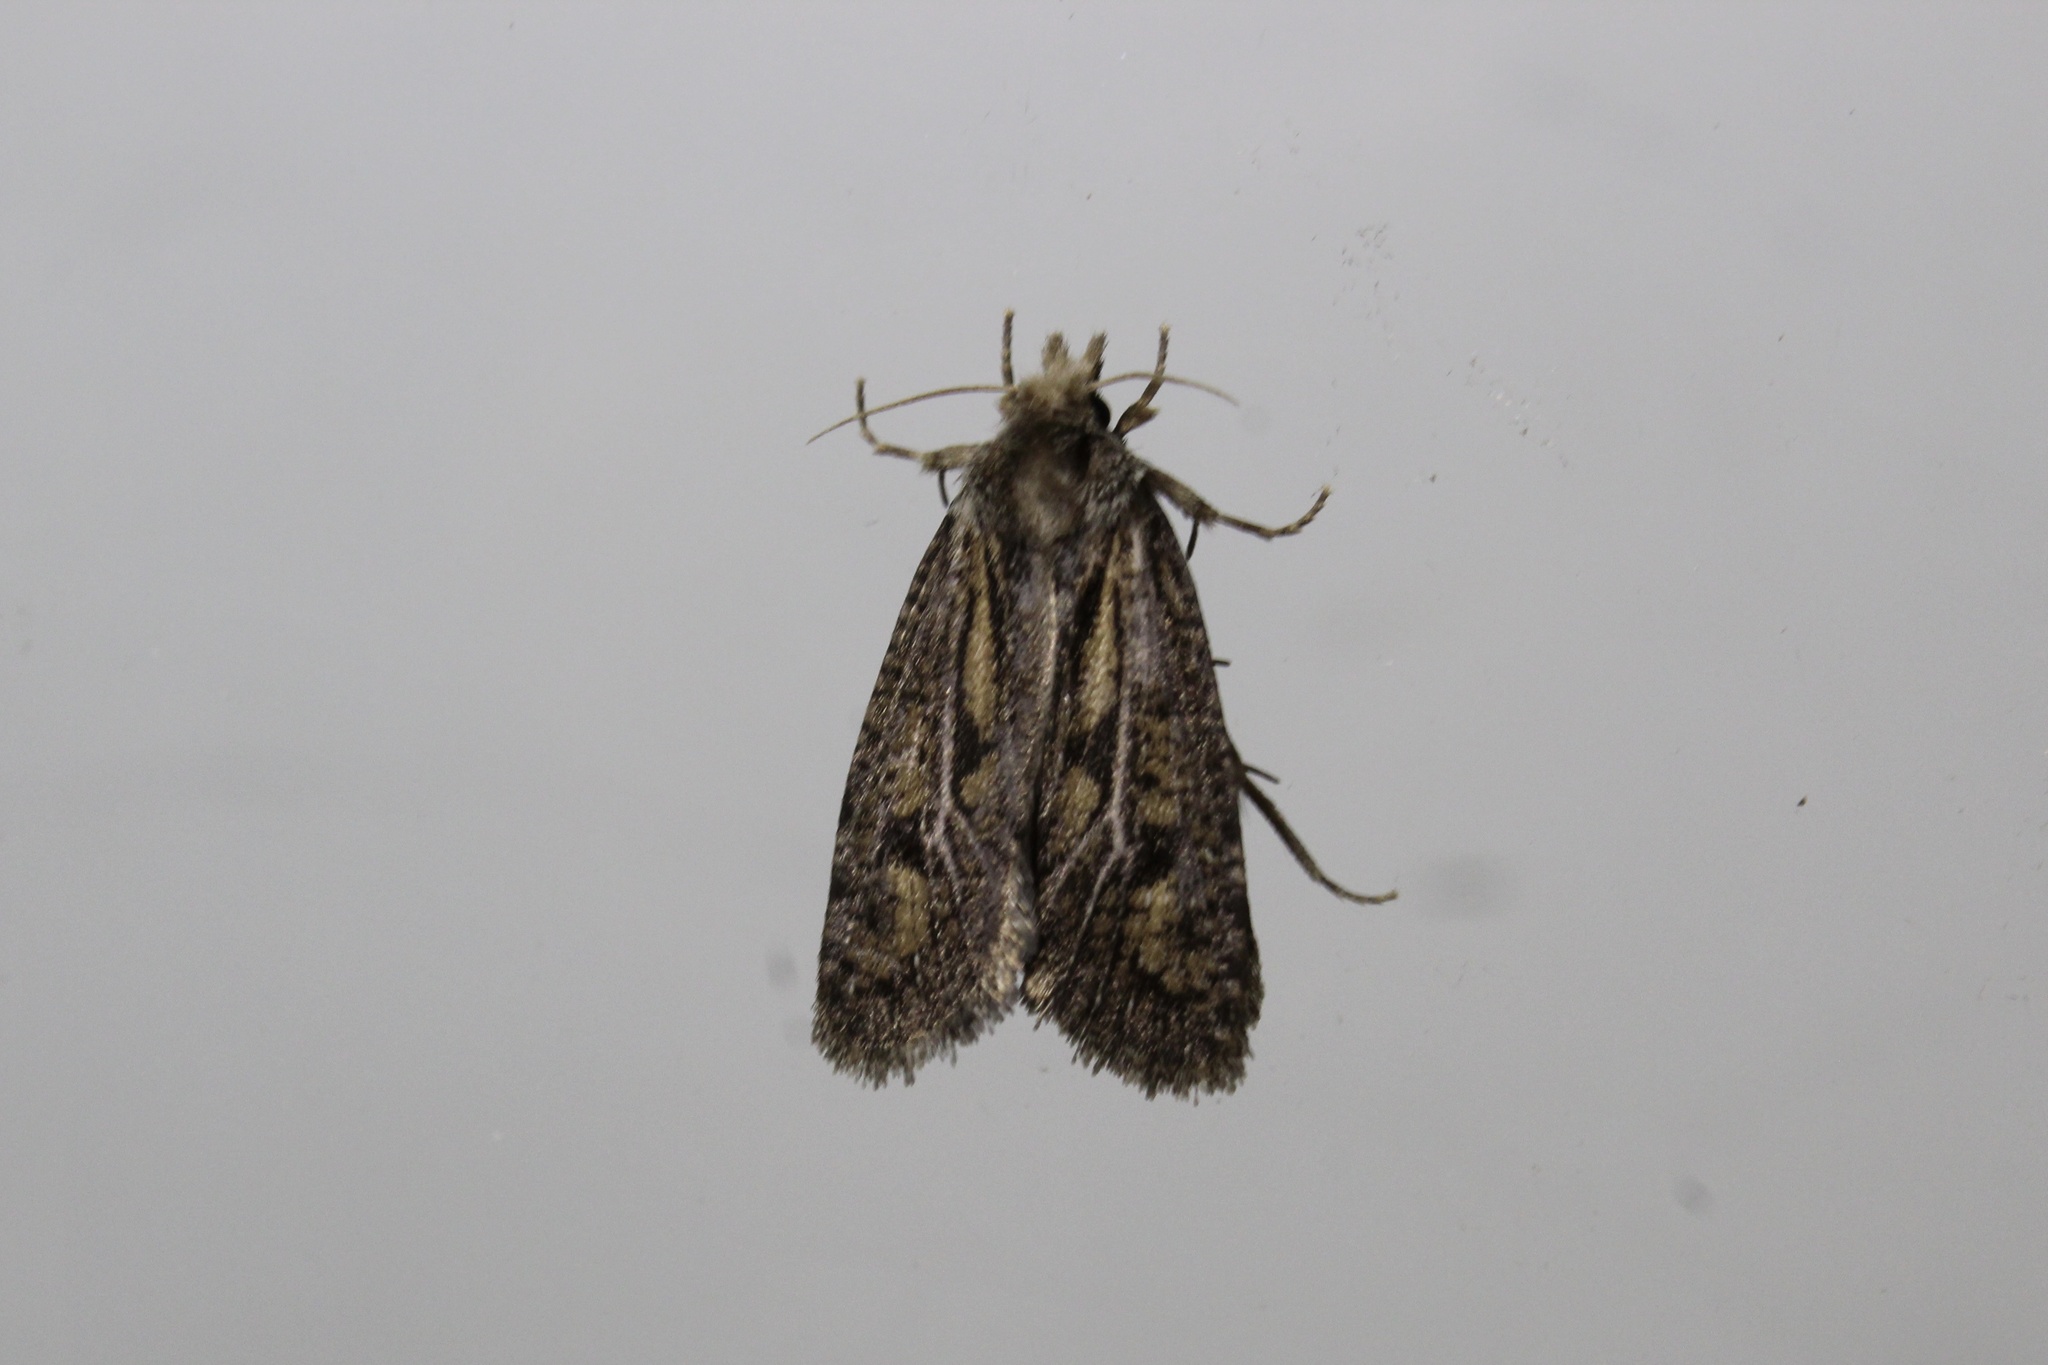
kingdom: Animalia
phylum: Arthropoda
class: Insecta
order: Lepidoptera
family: Tineidae
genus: Acrolophus
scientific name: Acrolophus popeanella
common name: Clemens' grass tubeworm moth
